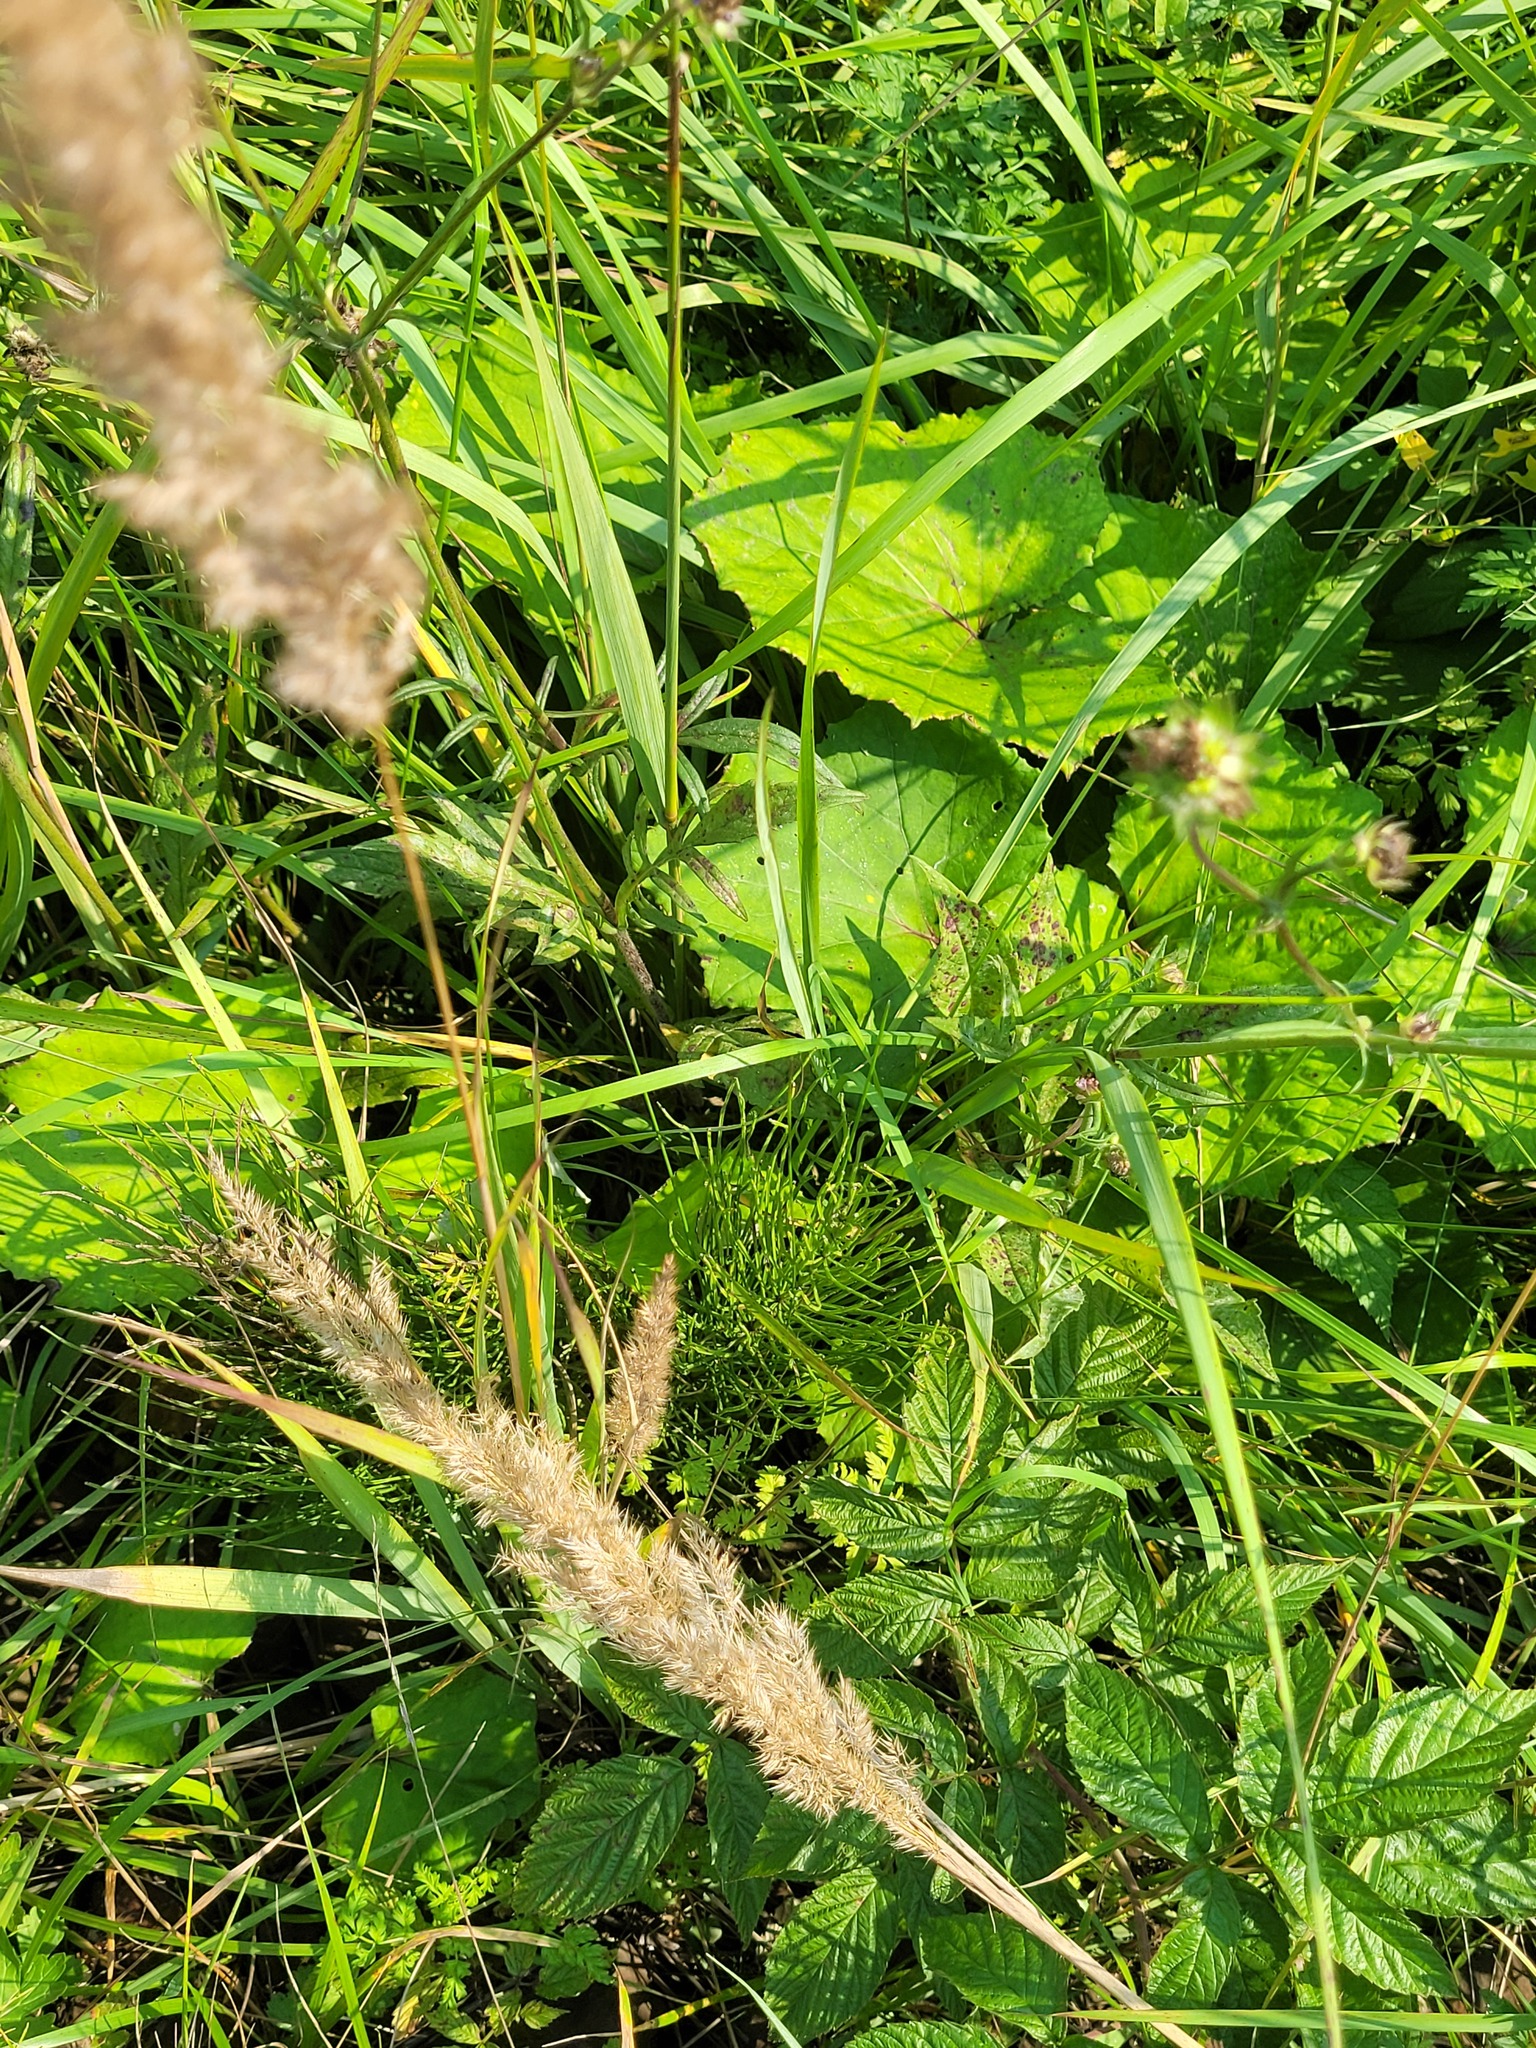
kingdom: Plantae
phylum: Tracheophyta
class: Polypodiopsida
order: Equisetales
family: Equisetaceae
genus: Equisetum
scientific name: Equisetum arvense
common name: Field horsetail
